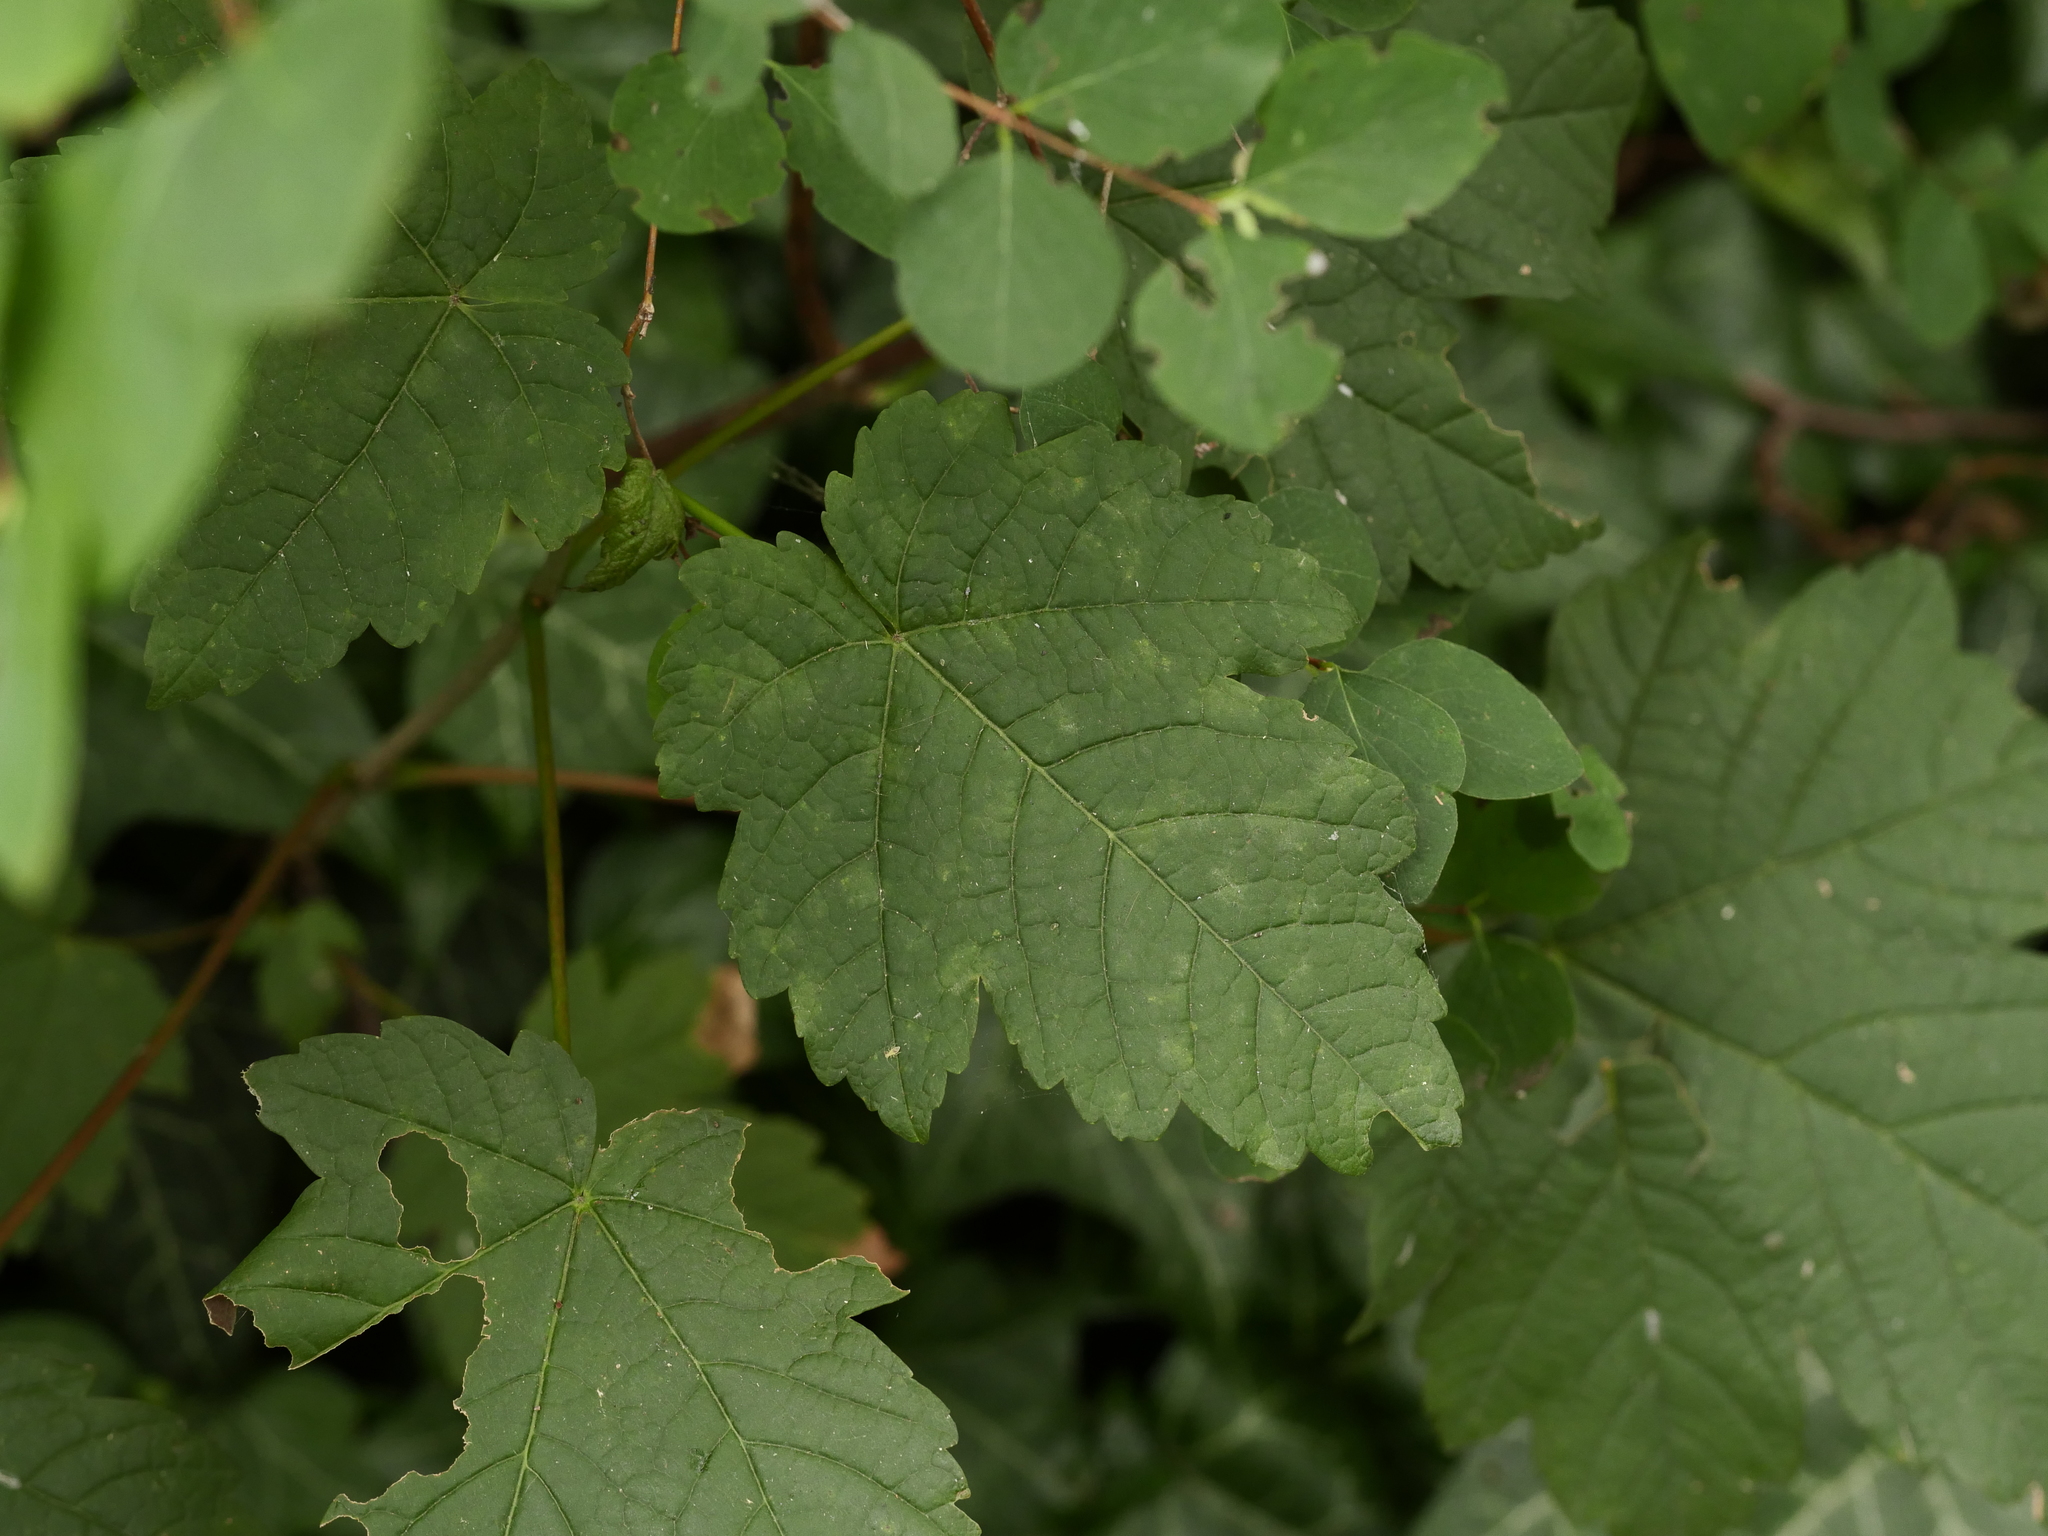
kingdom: Plantae
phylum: Tracheophyta
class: Magnoliopsida
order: Sapindales
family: Sapindaceae
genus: Acer
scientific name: Acer pseudoplatanus
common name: Sycamore
